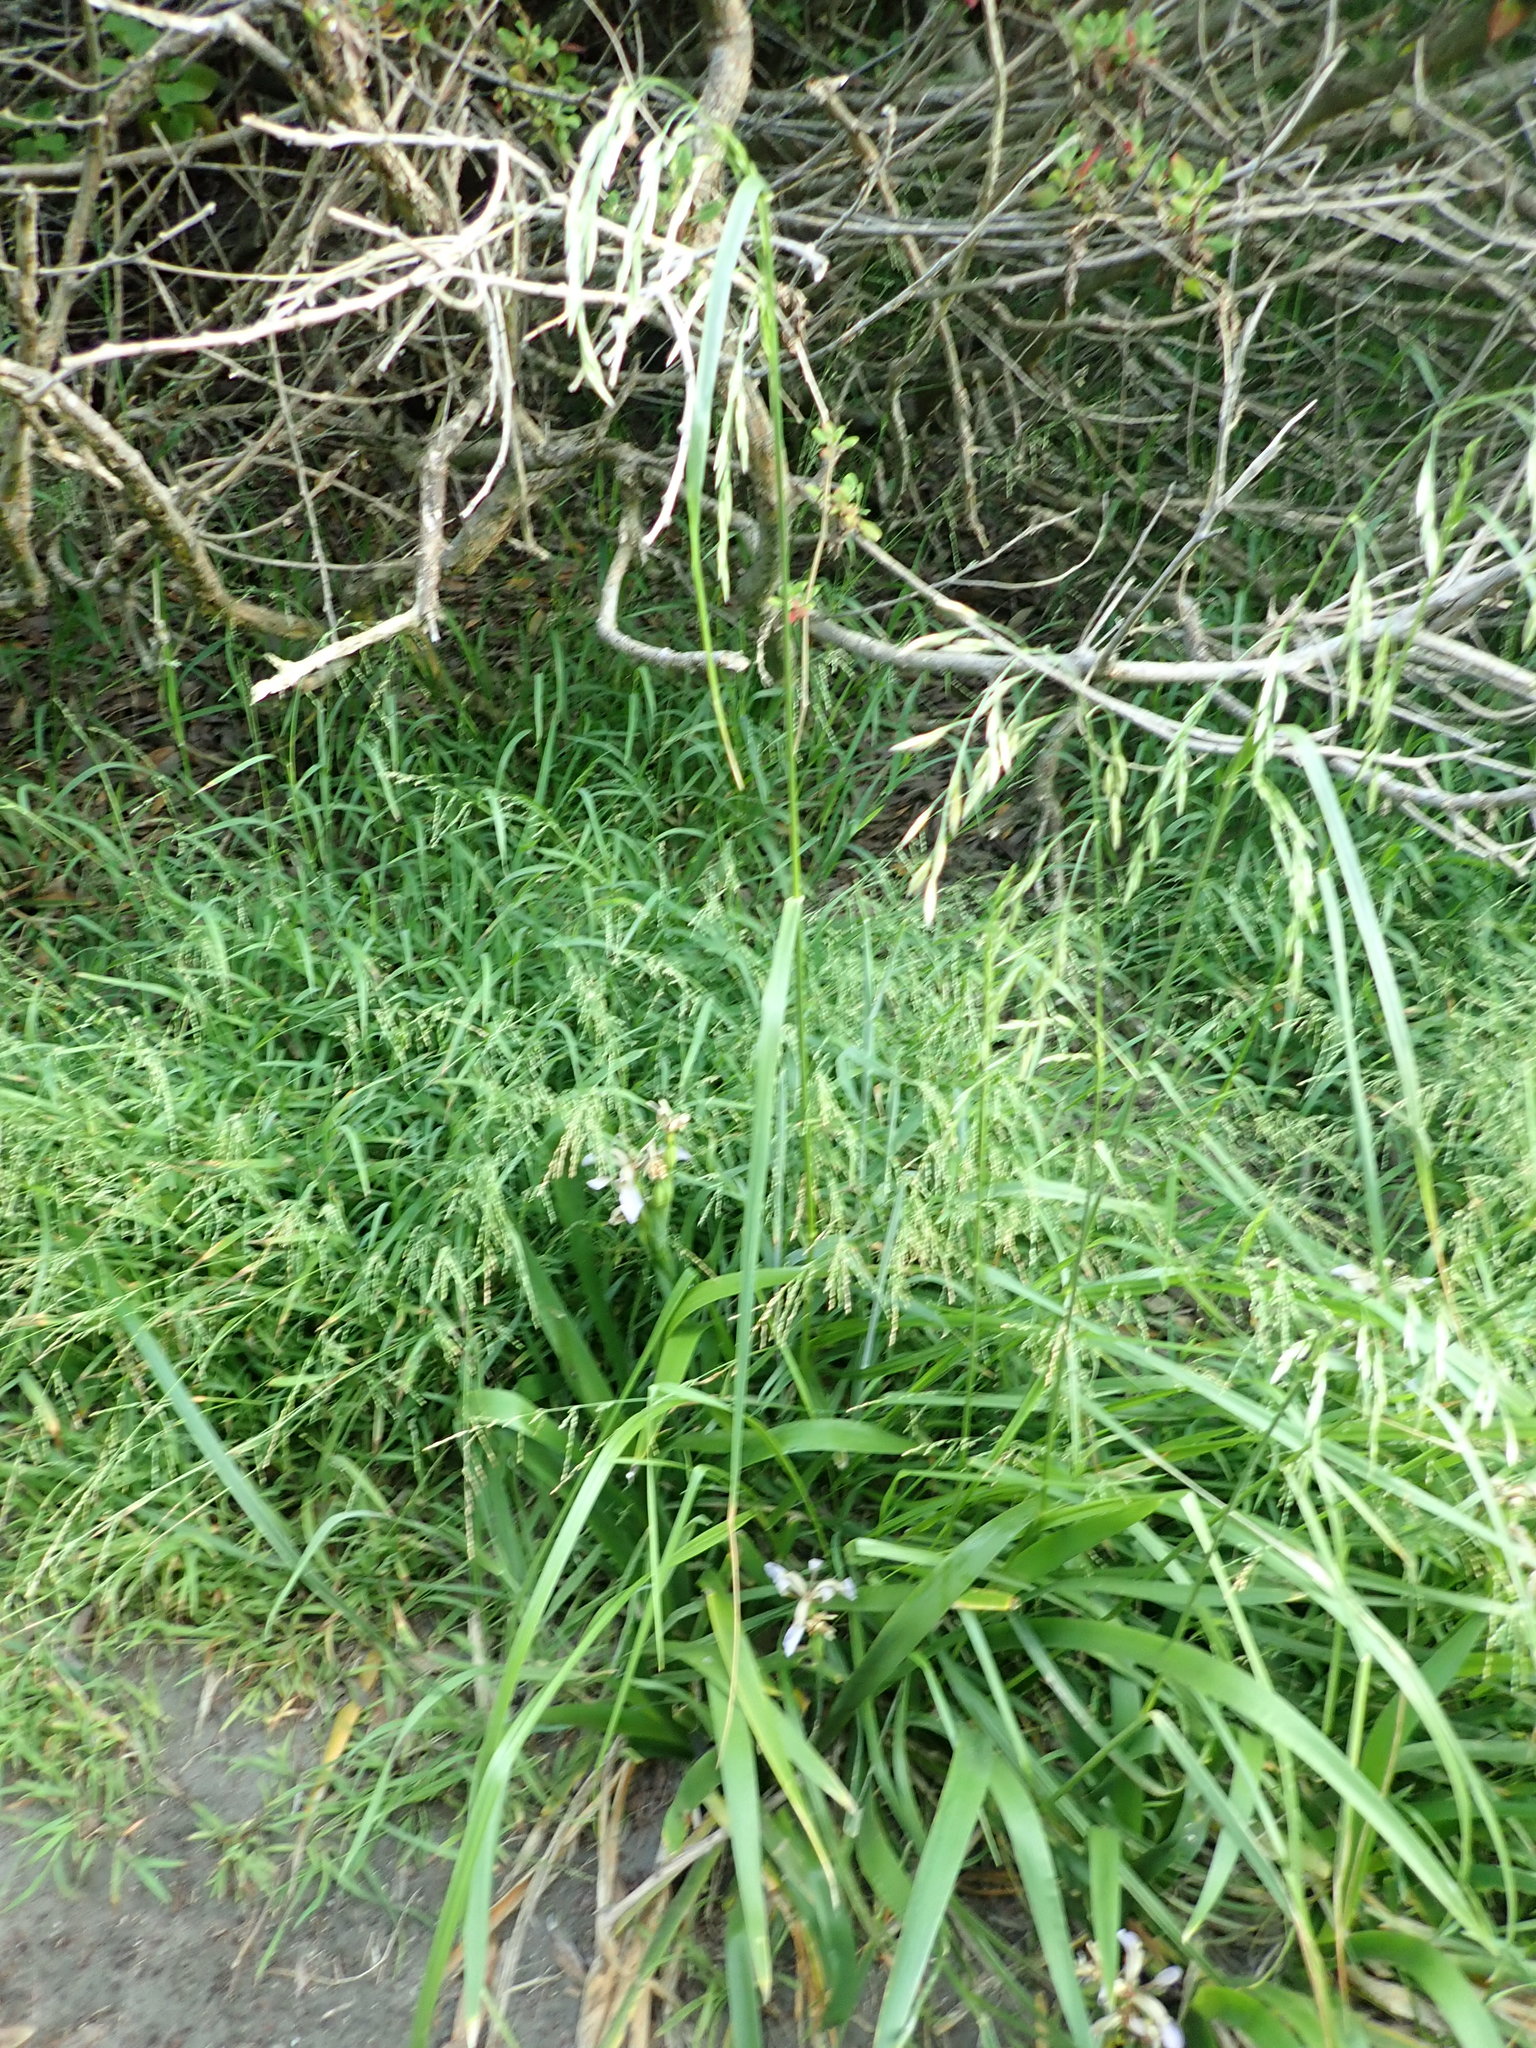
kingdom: Plantae
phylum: Tracheophyta
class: Liliopsida
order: Poales
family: Poaceae
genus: Lolium
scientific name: Lolium arundinaceum
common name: Reed fescue
